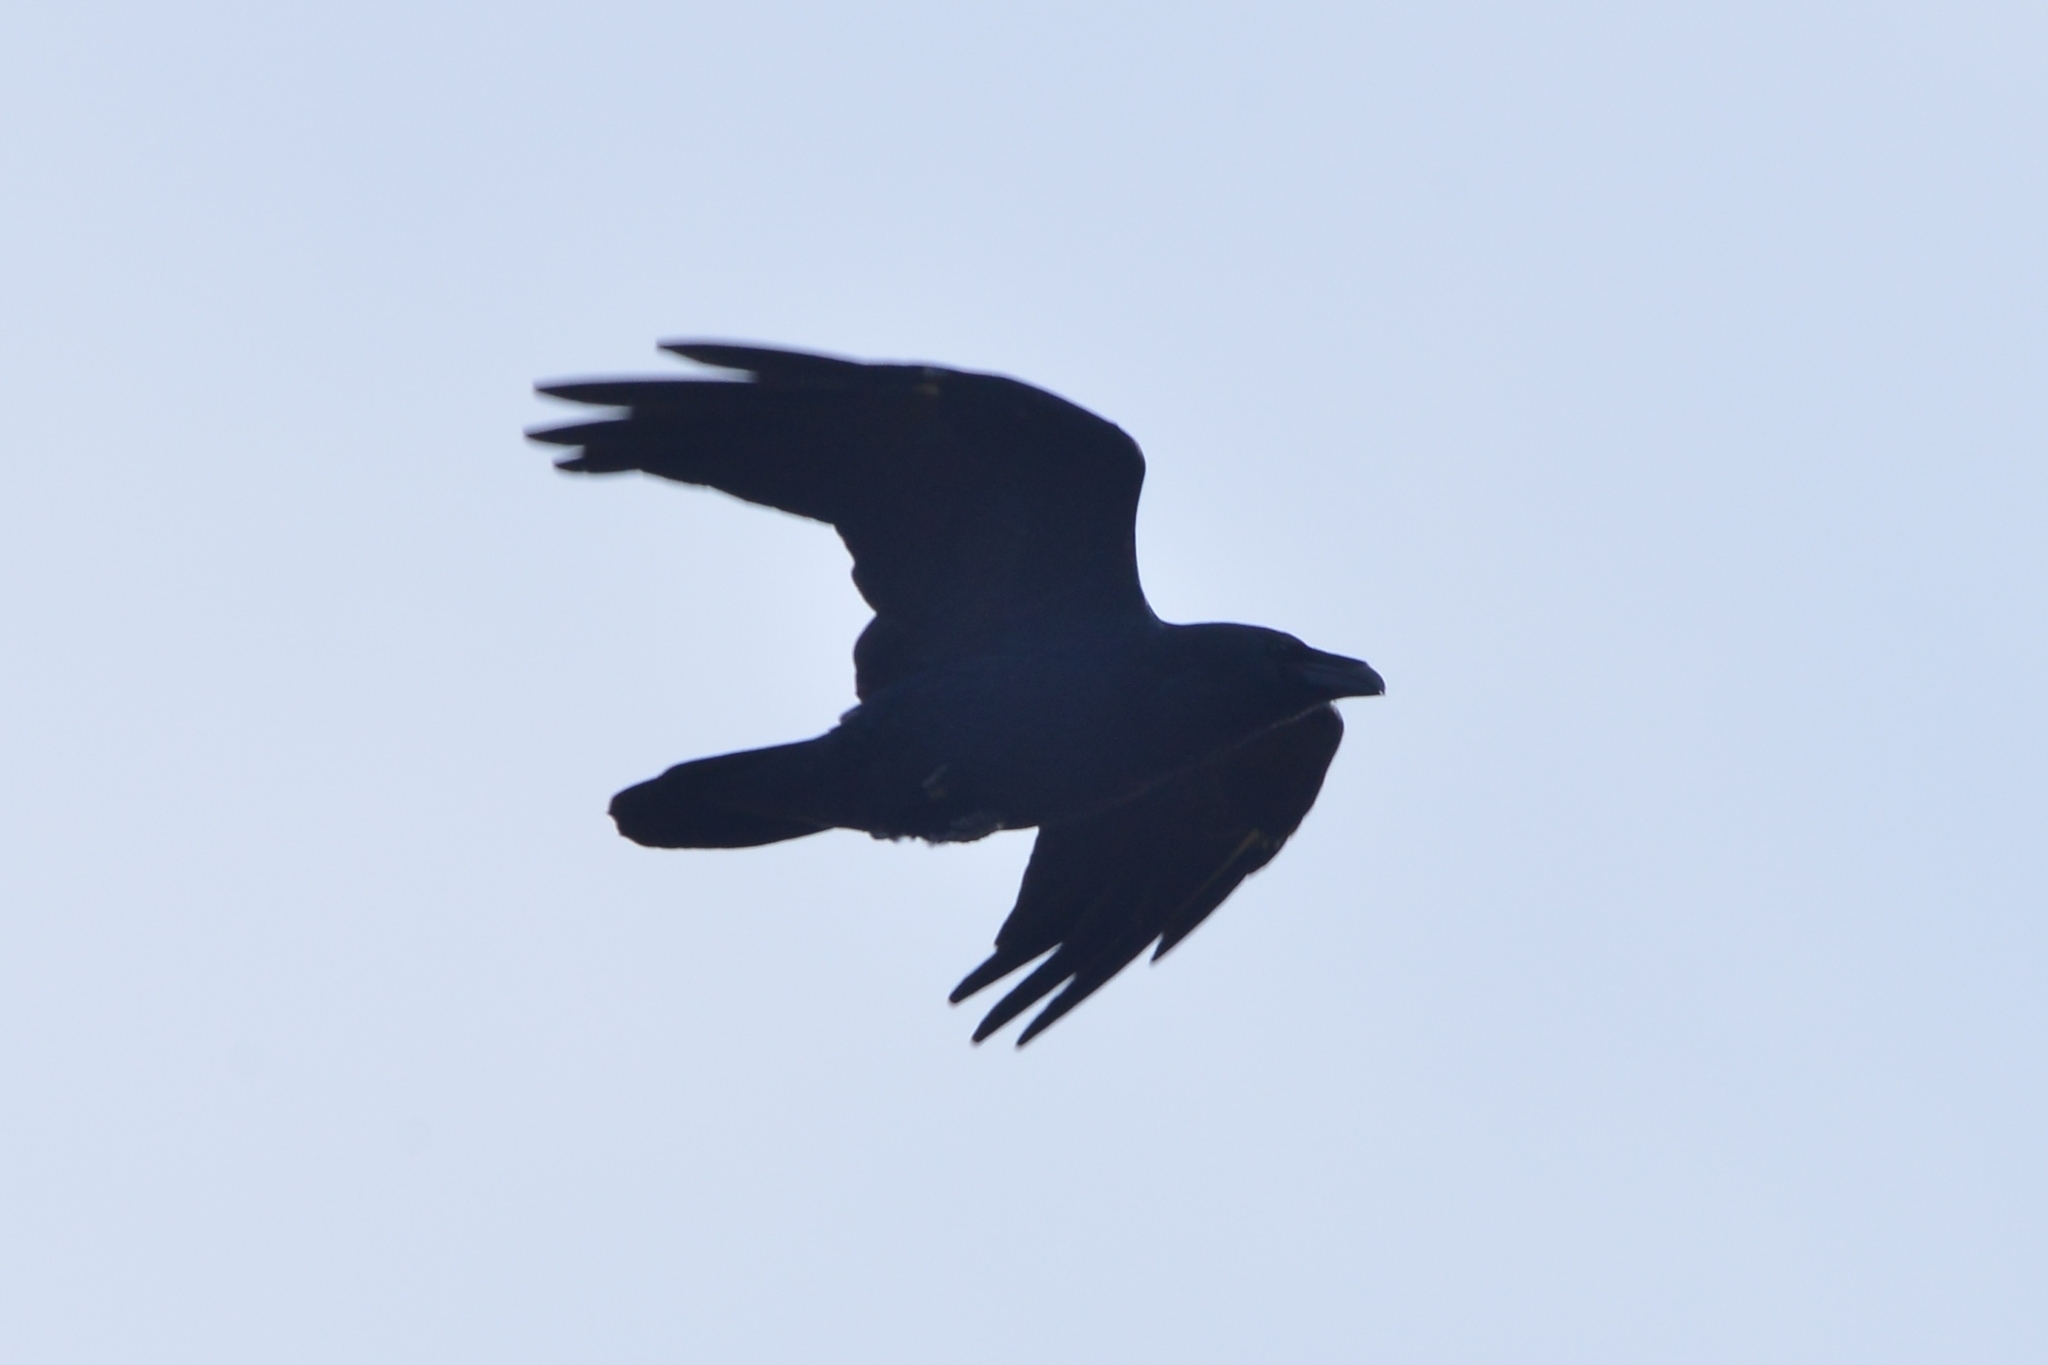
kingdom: Animalia
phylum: Chordata
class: Aves
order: Passeriformes
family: Corvidae
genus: Corvus
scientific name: Corvus corax
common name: Common raven
